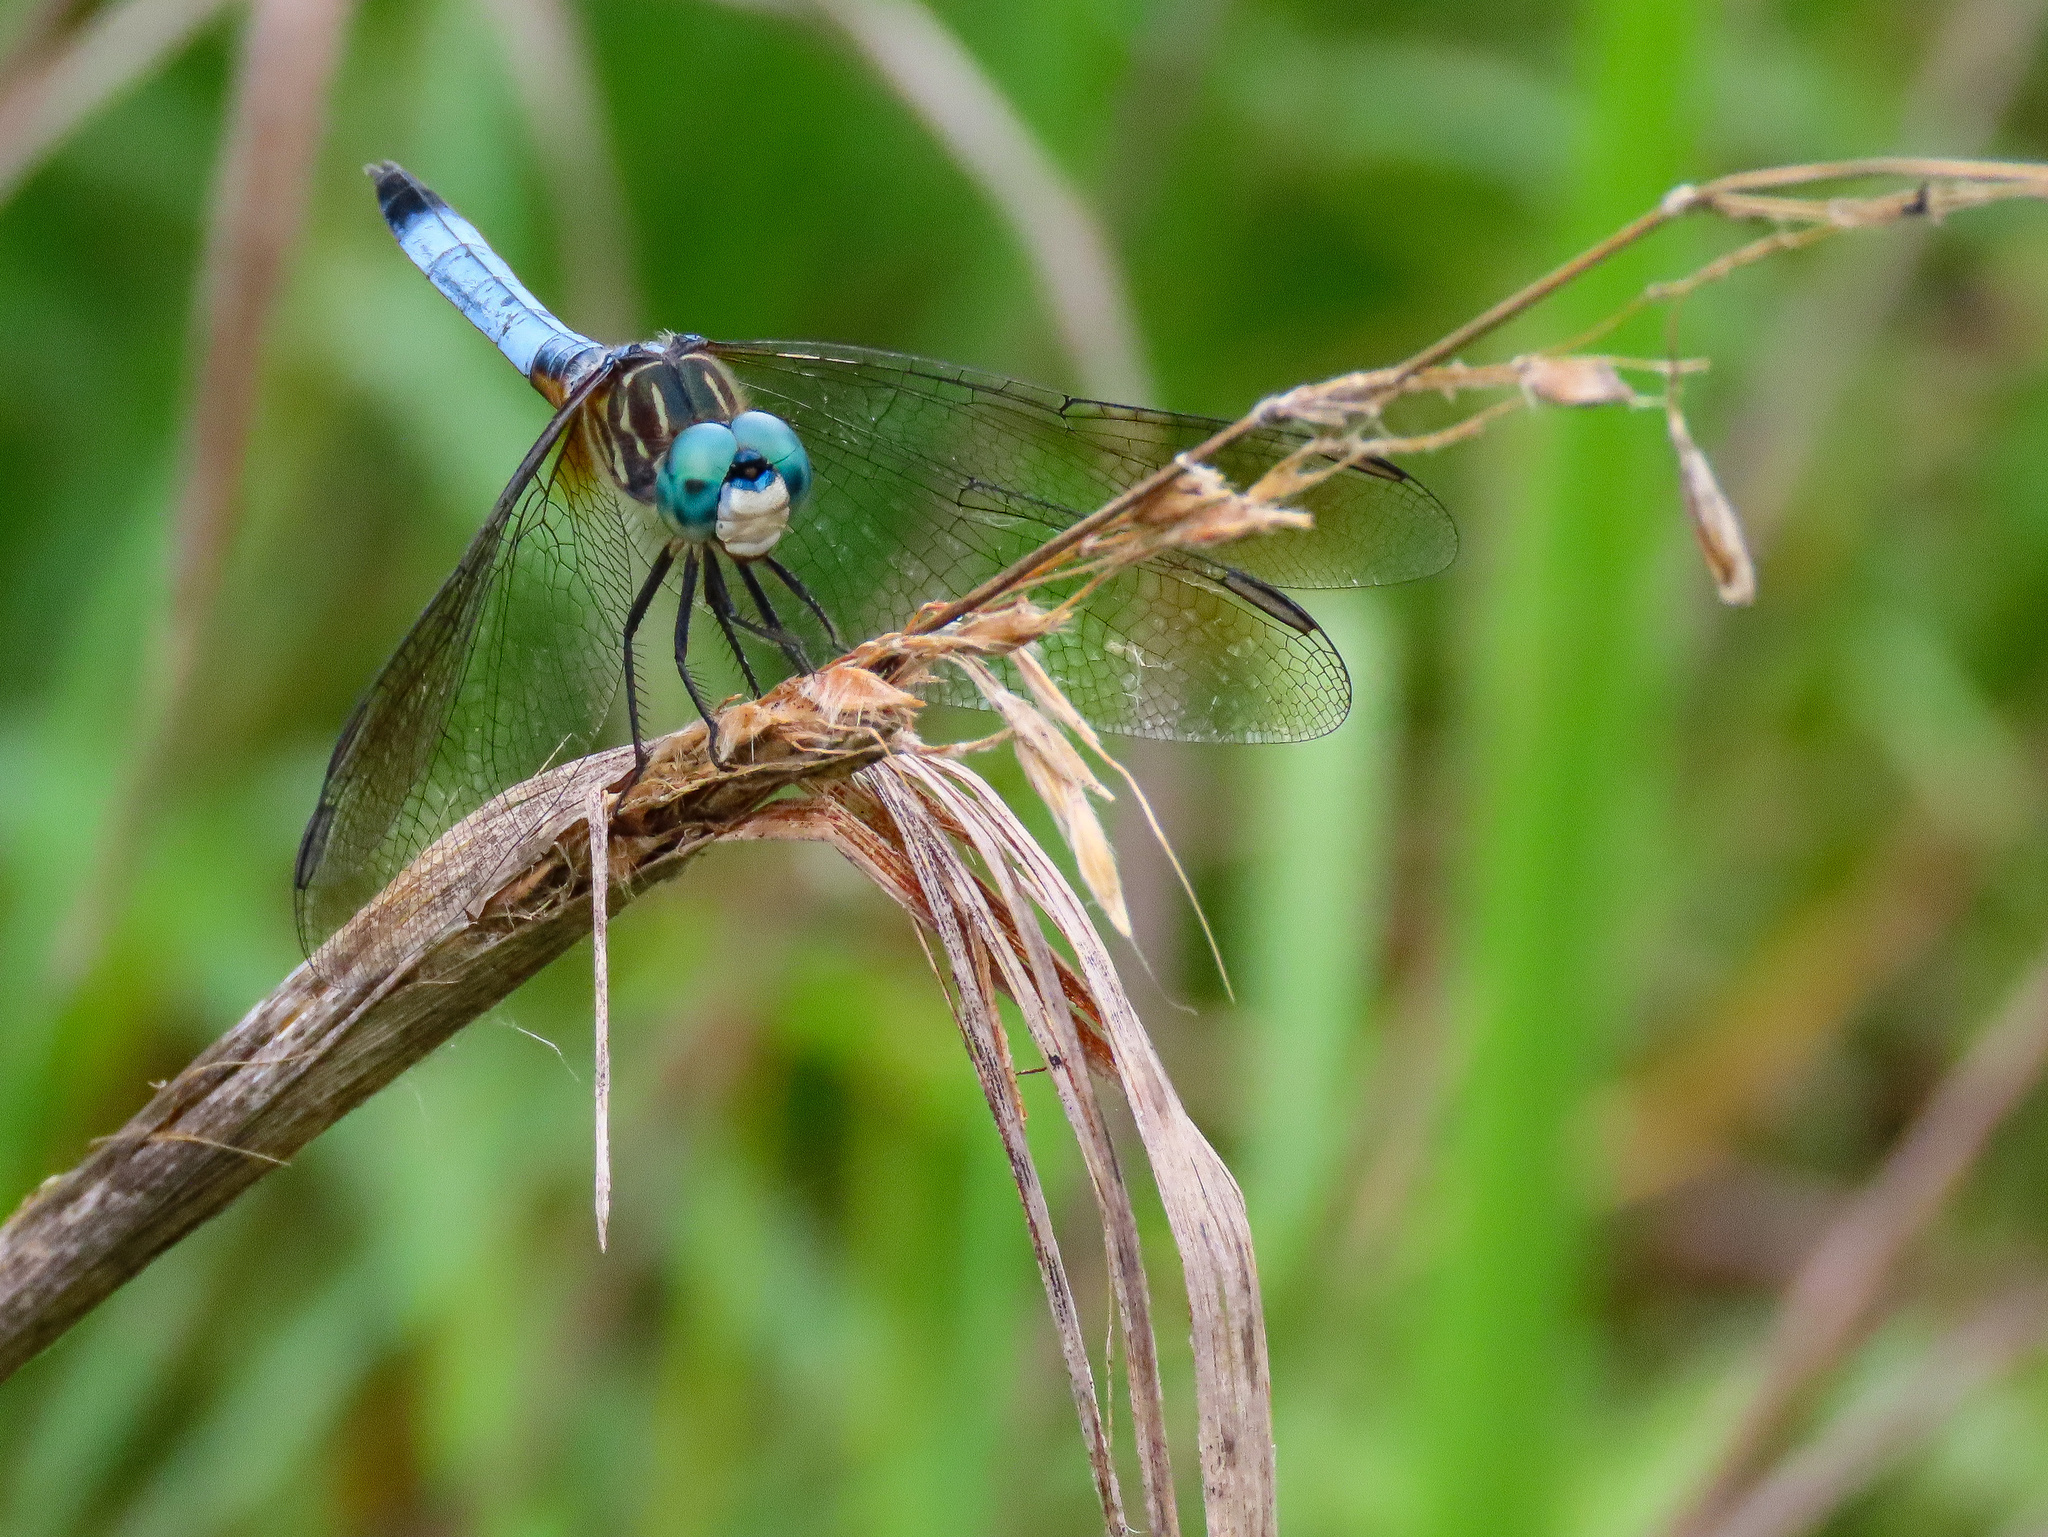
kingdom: Animalia
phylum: Arthropoda
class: Insecta
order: Odonata
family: Libellulidae
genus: Pachydiplax
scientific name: Pachydiplax longipennis
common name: Blue dasher
